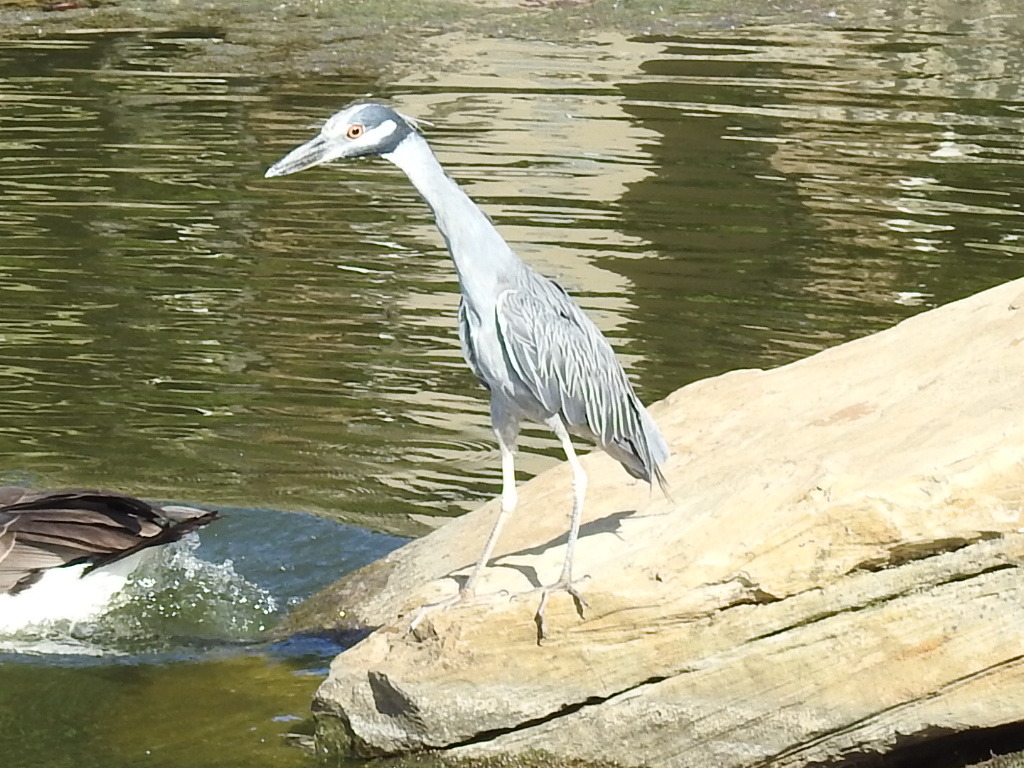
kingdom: Animalia
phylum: Chordata
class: Aves
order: Pelecaniformes
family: Ardeidae
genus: Nyctanassa
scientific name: Nyctanassa violacea
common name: Yellow-crowned night heron
